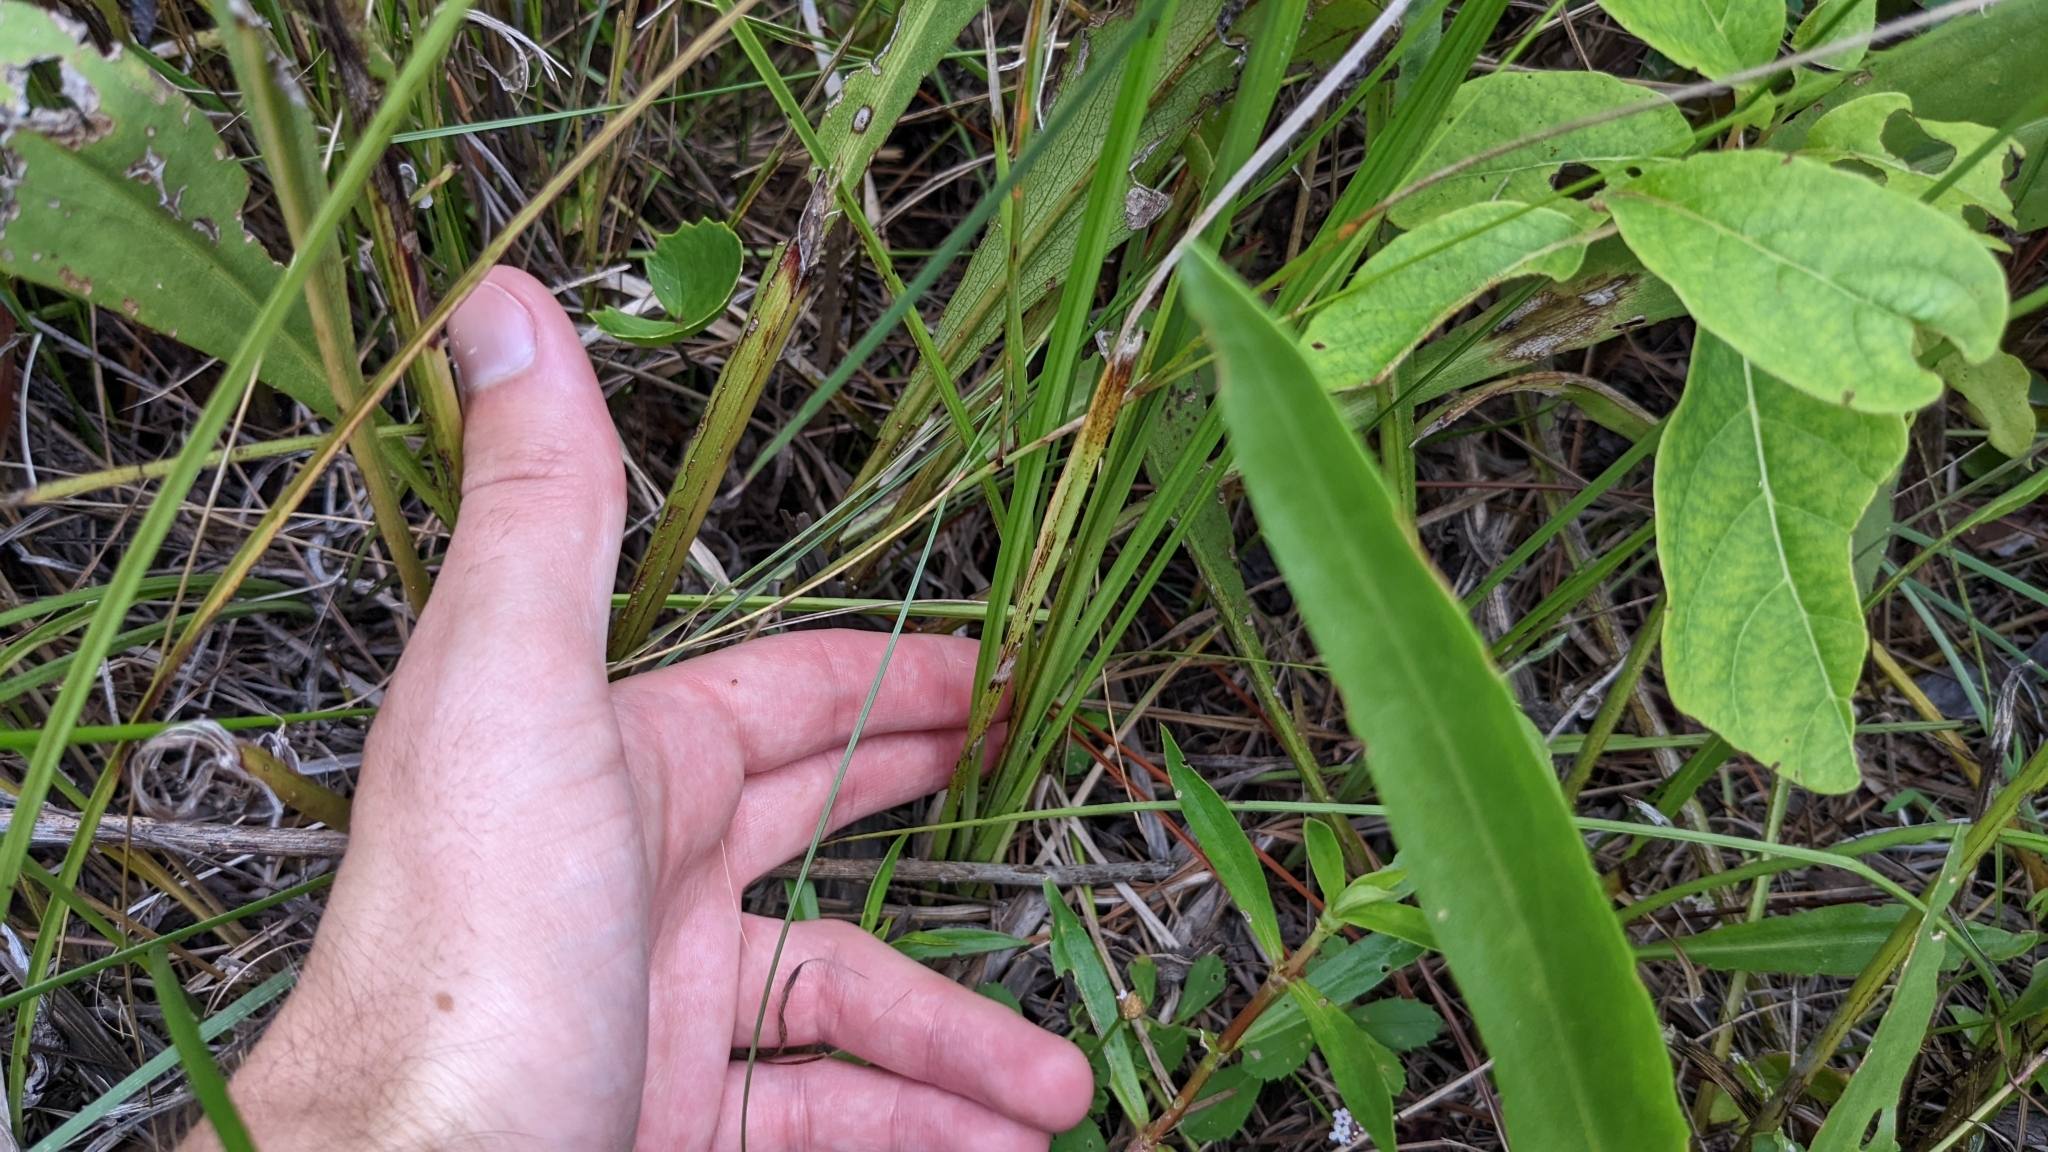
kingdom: Plantae
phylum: Tracheophyta
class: Liliopsida
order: Poales
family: Cyperaceae
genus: Rhynchospora
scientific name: Rhynchospora colorata
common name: Star sedge
